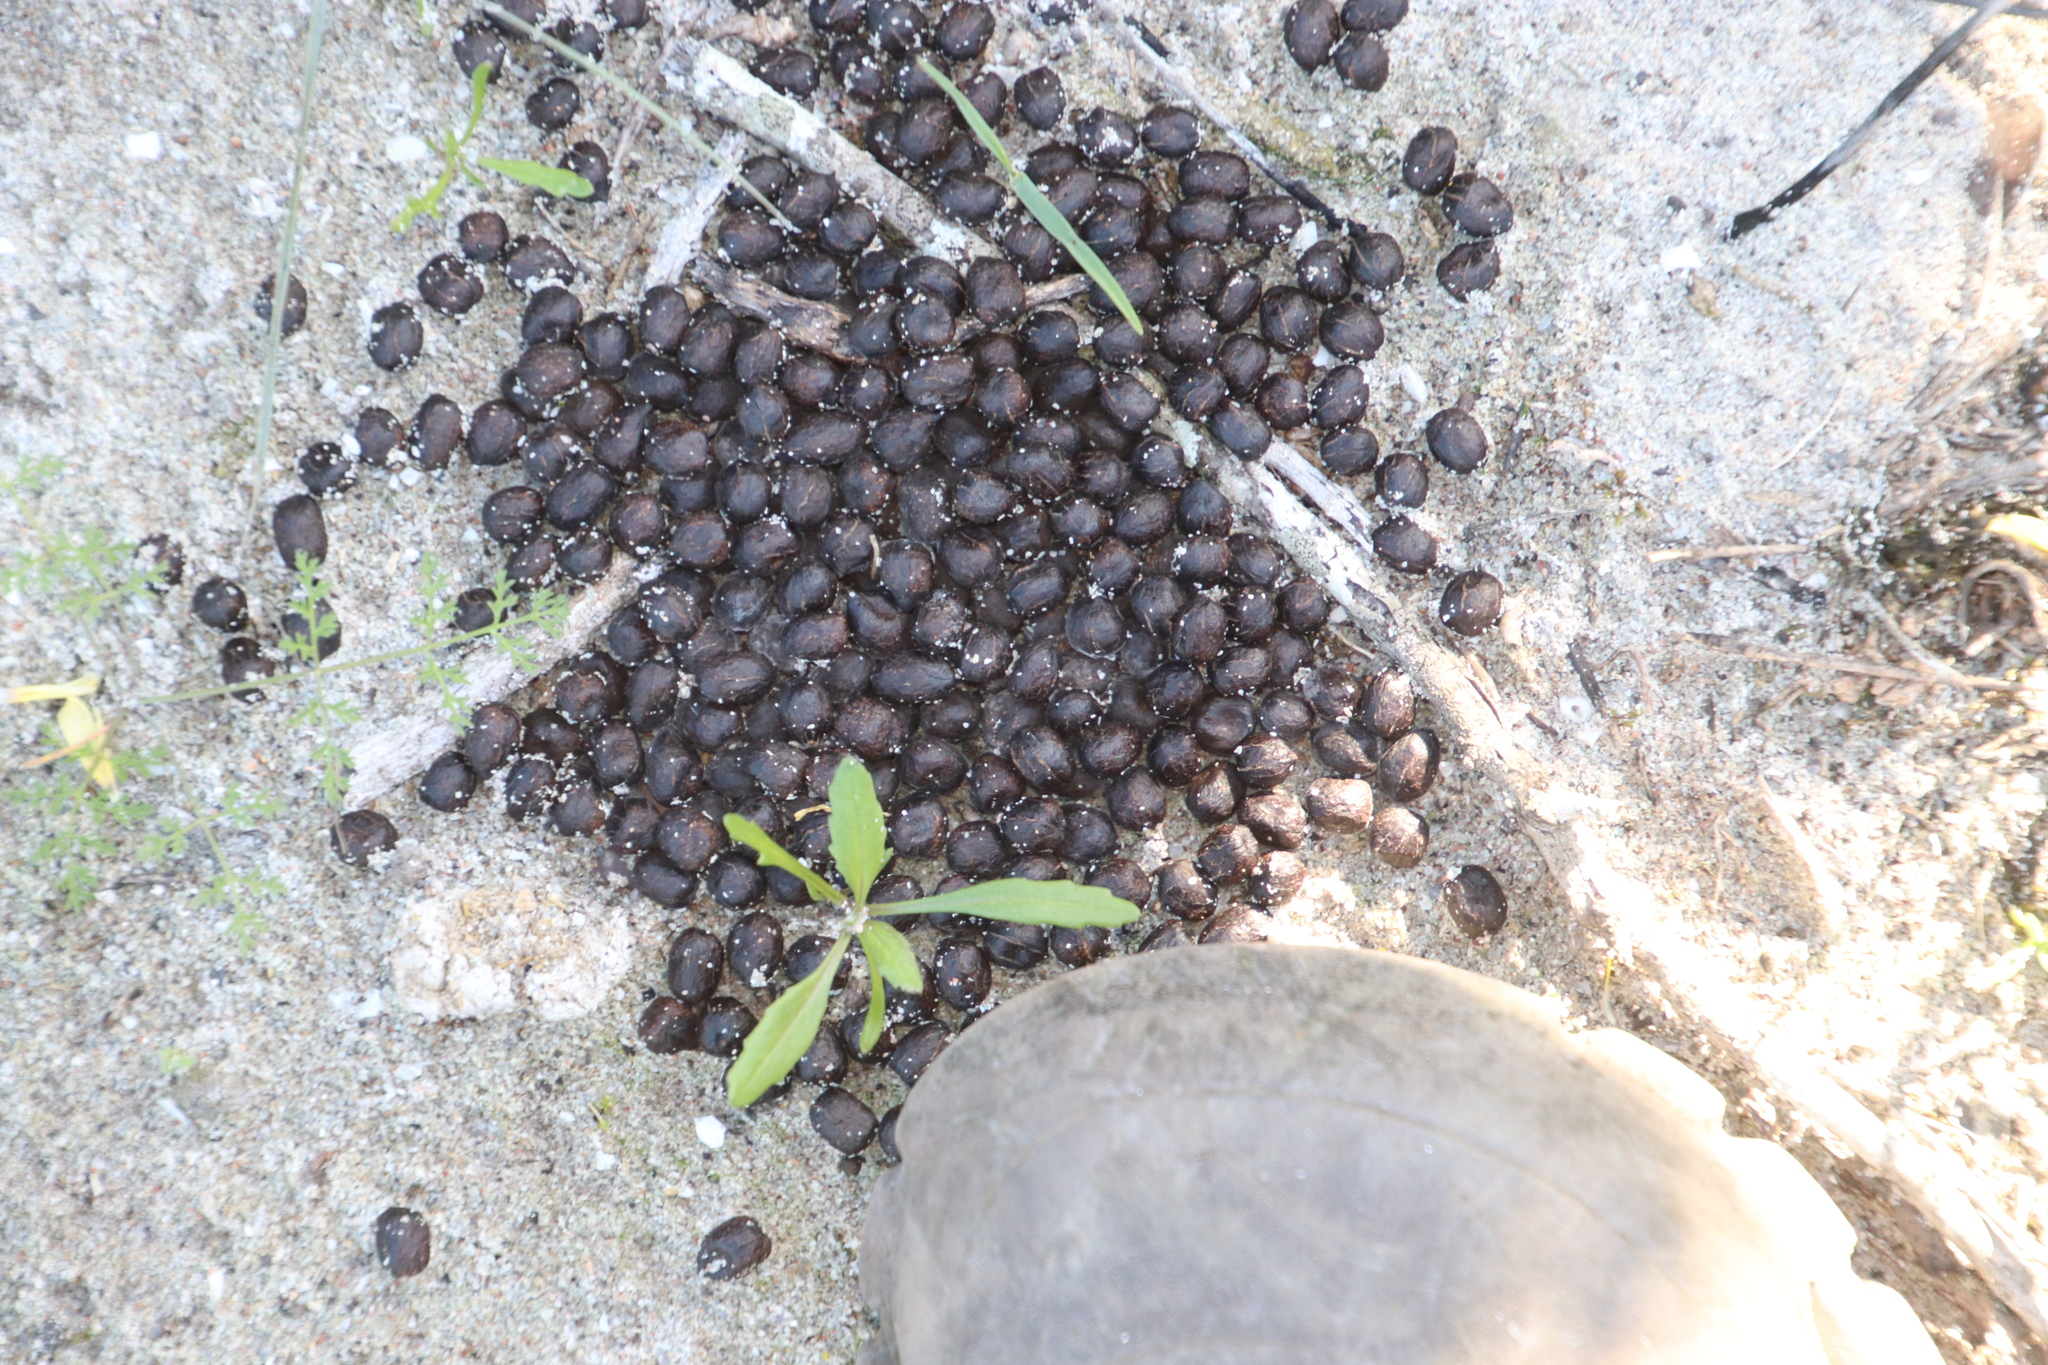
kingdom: Animalia
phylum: Chordata
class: Mammalia
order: Artiodactyla
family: Bovidae
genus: Sylvicapra
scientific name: Sylvicapra grimmia
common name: Bush duiker
